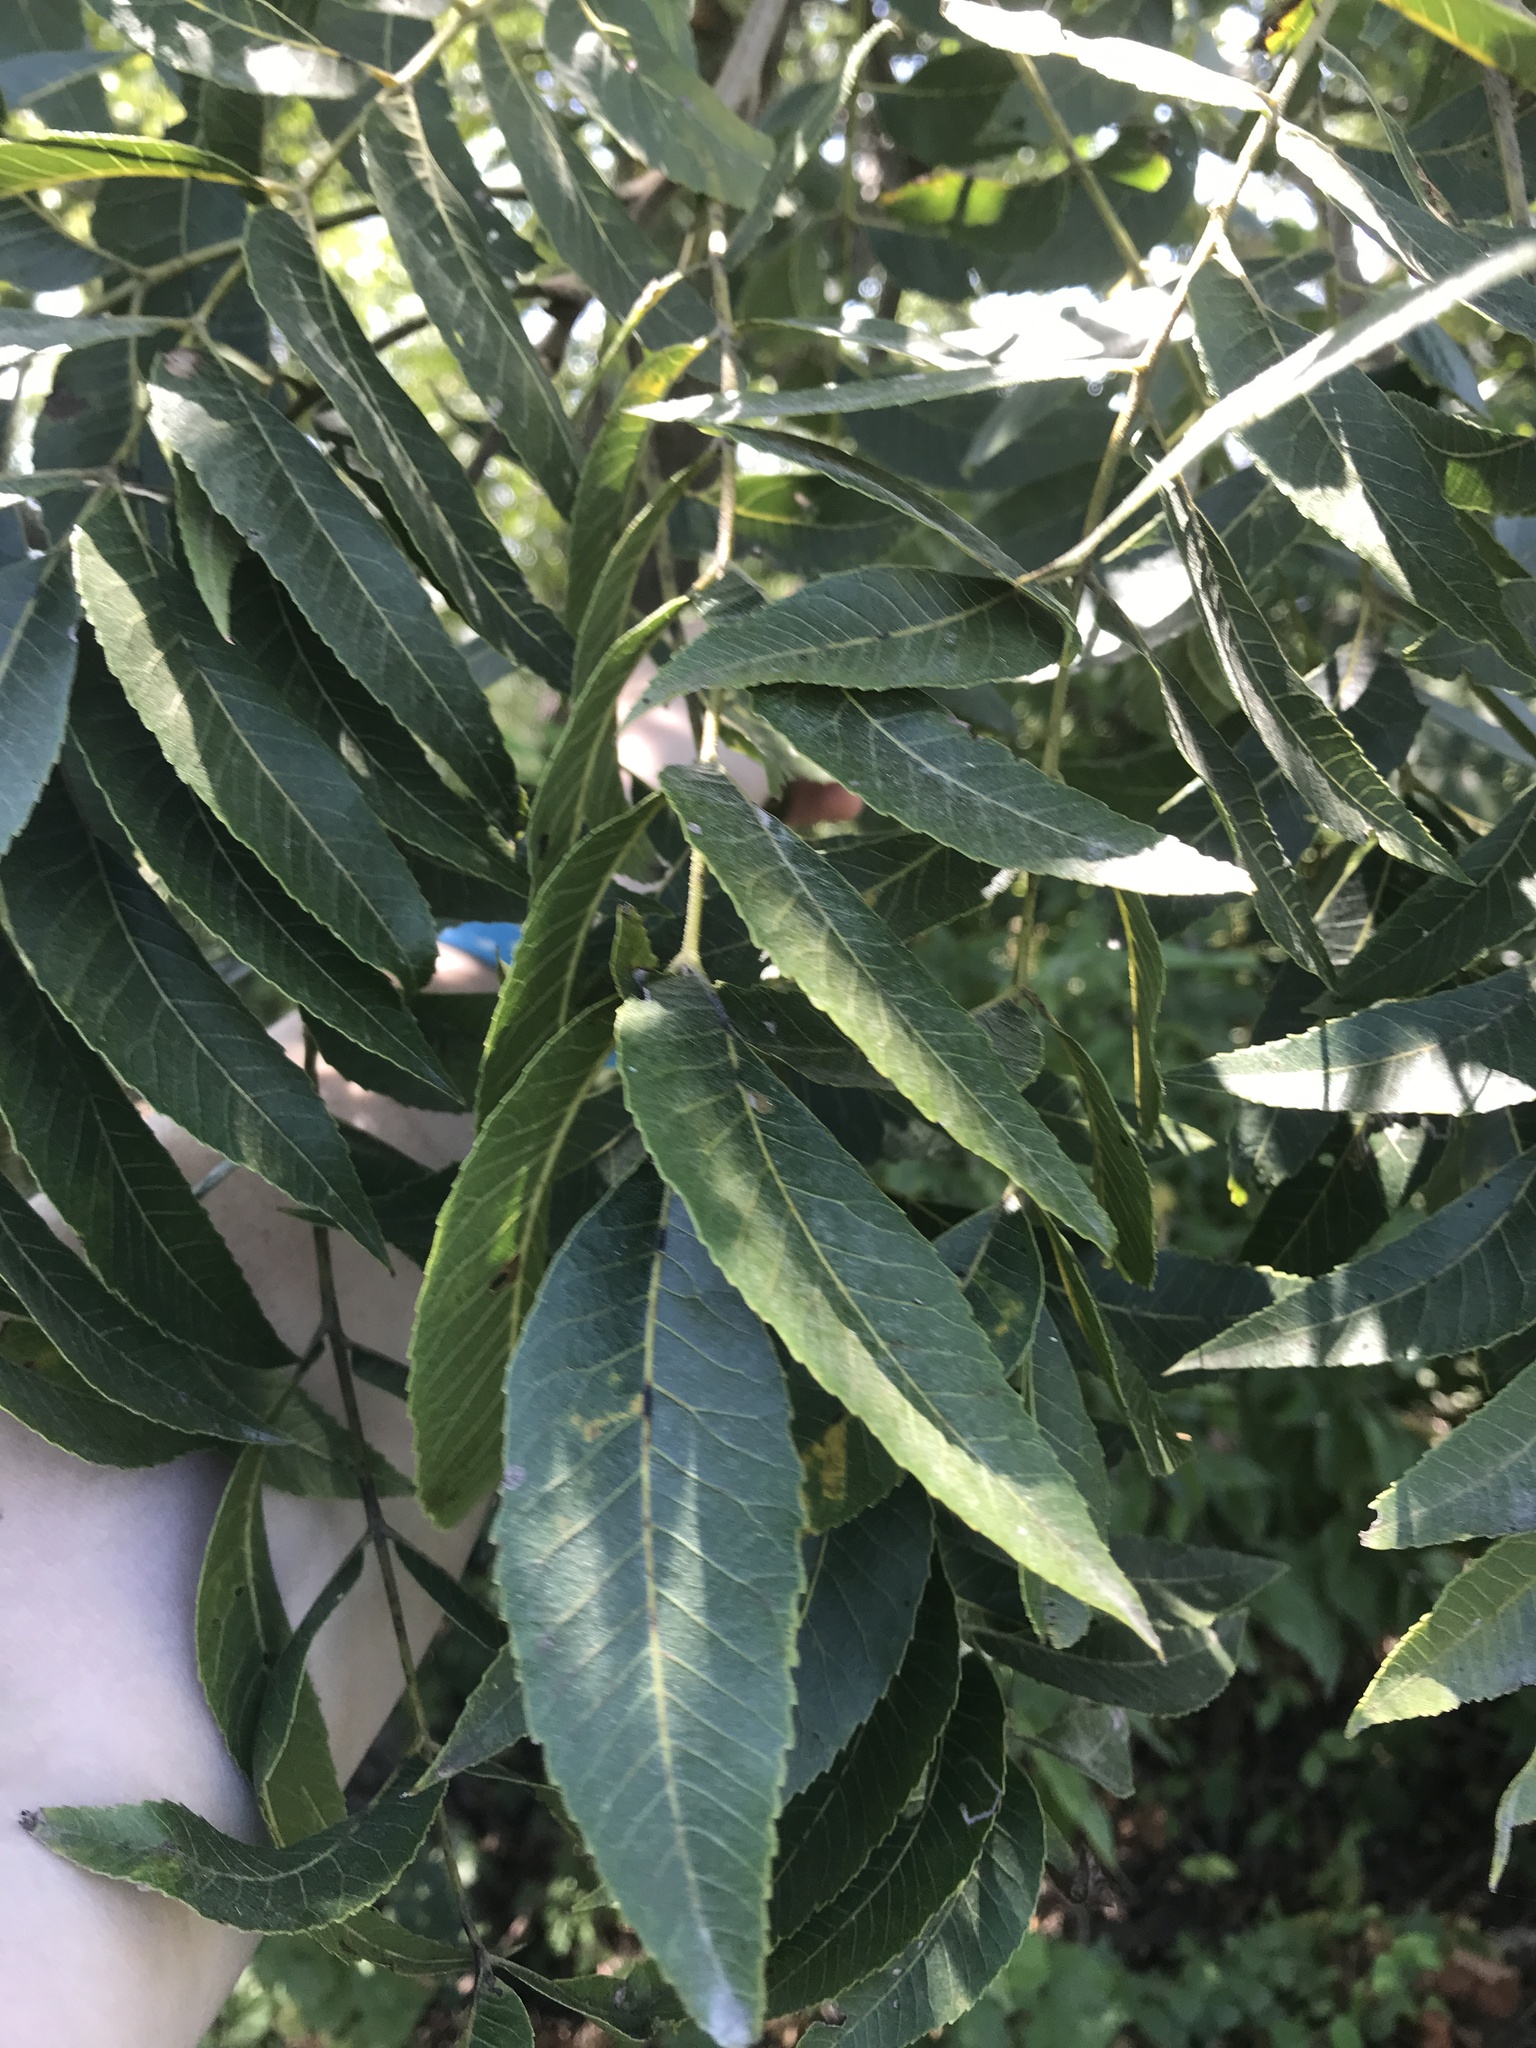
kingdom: Plantae
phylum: Tracheophyta
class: Magnoliopsida
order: Fagales
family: Juglandaceae
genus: Carya
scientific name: Carya illinoinensis
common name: Pecan
